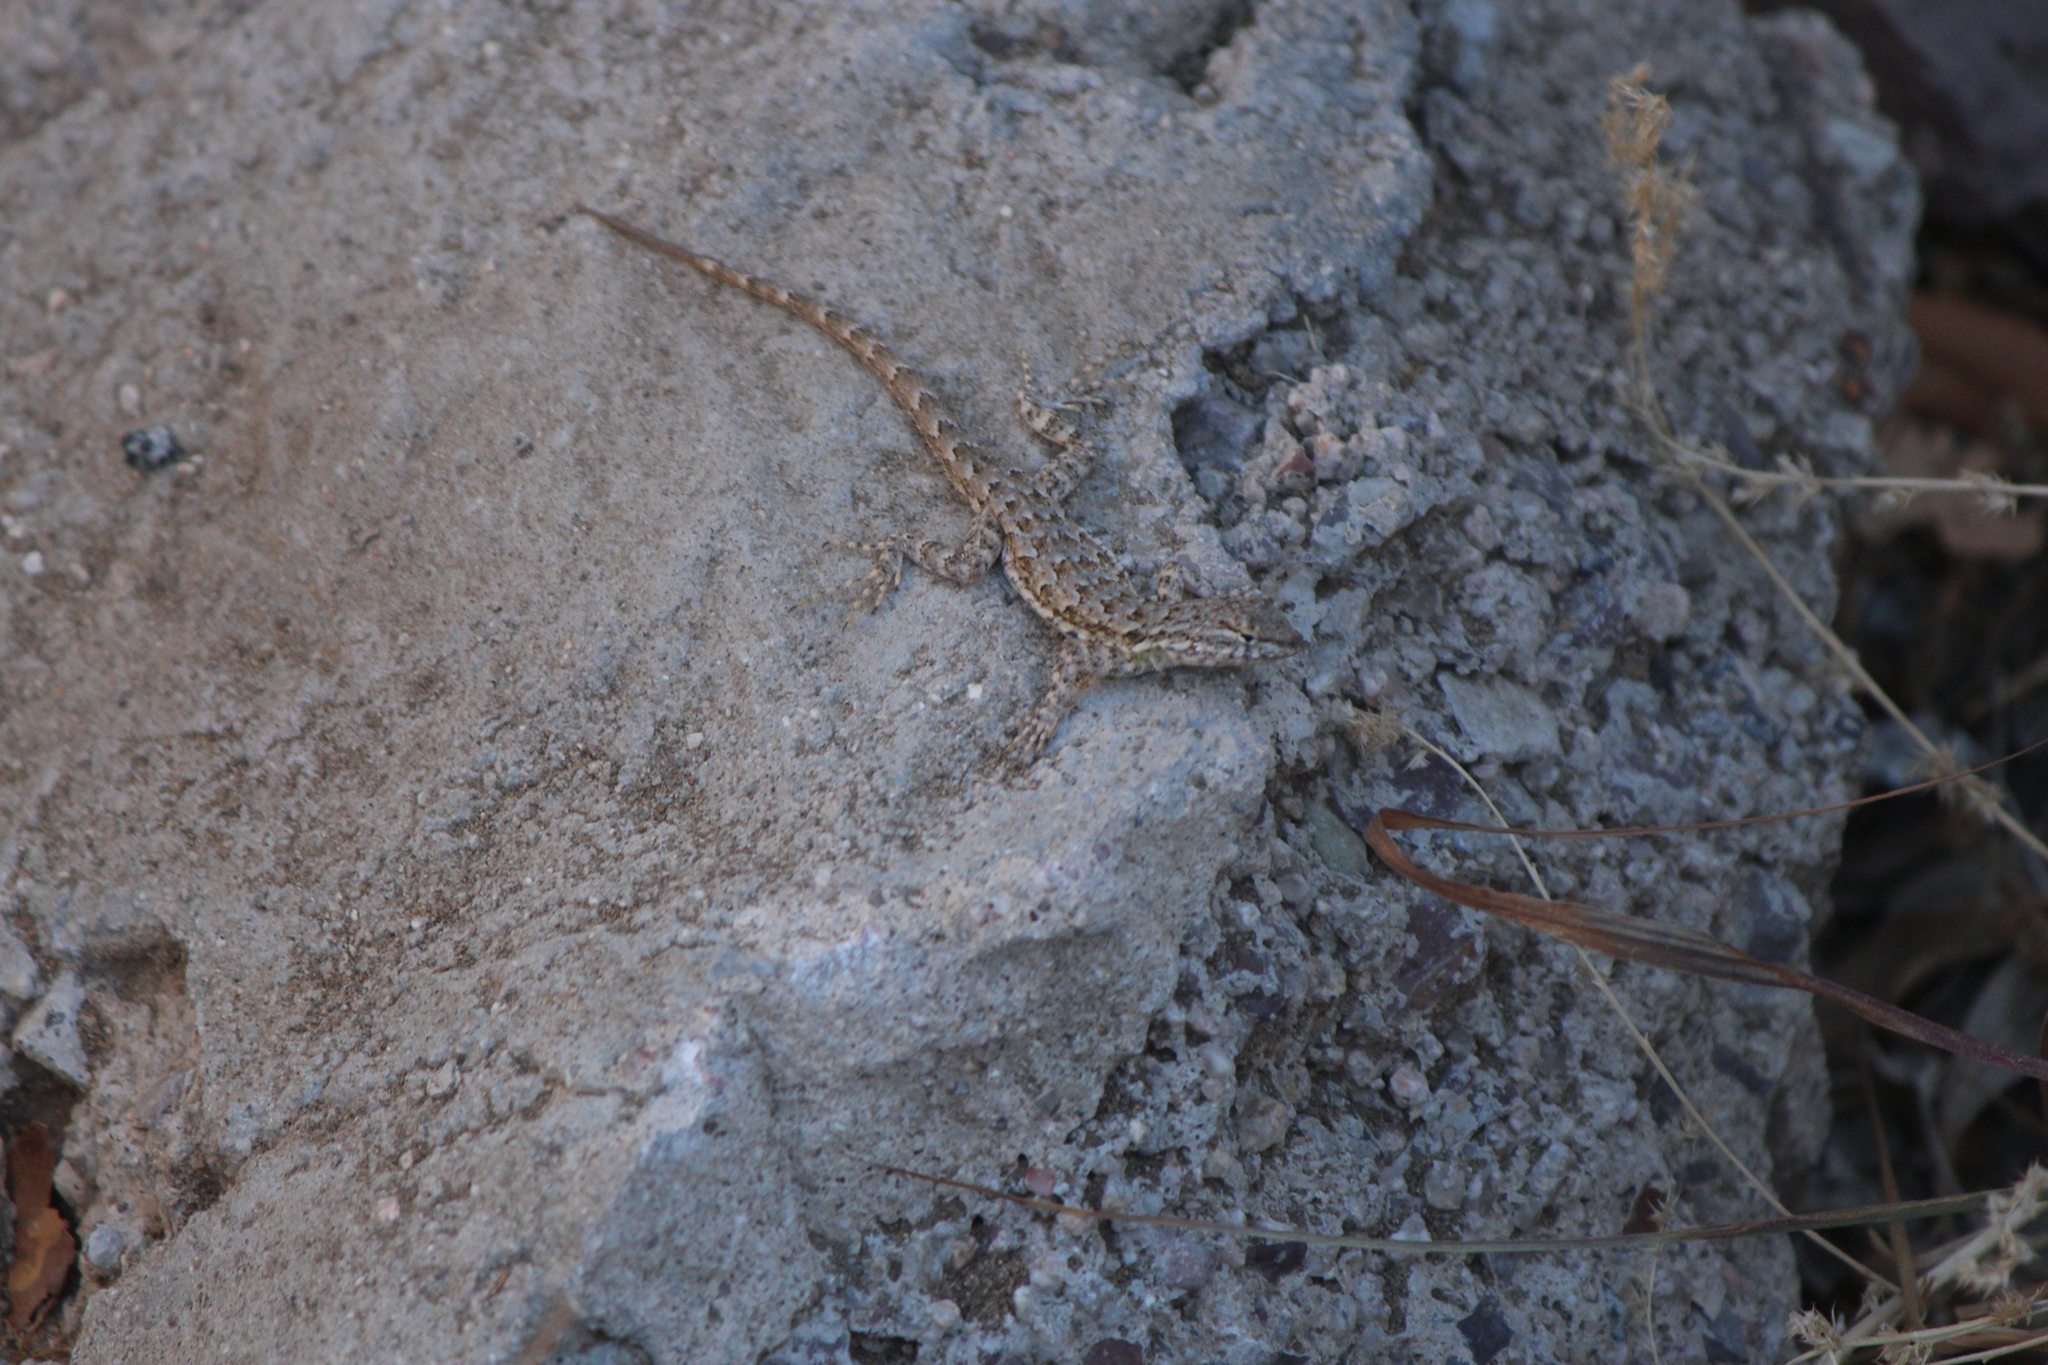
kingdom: Animalia
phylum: Chordata
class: Squamata
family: Phrynosomatidae
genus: Uta
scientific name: Uta stansburiana
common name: Side-blotched lizard
